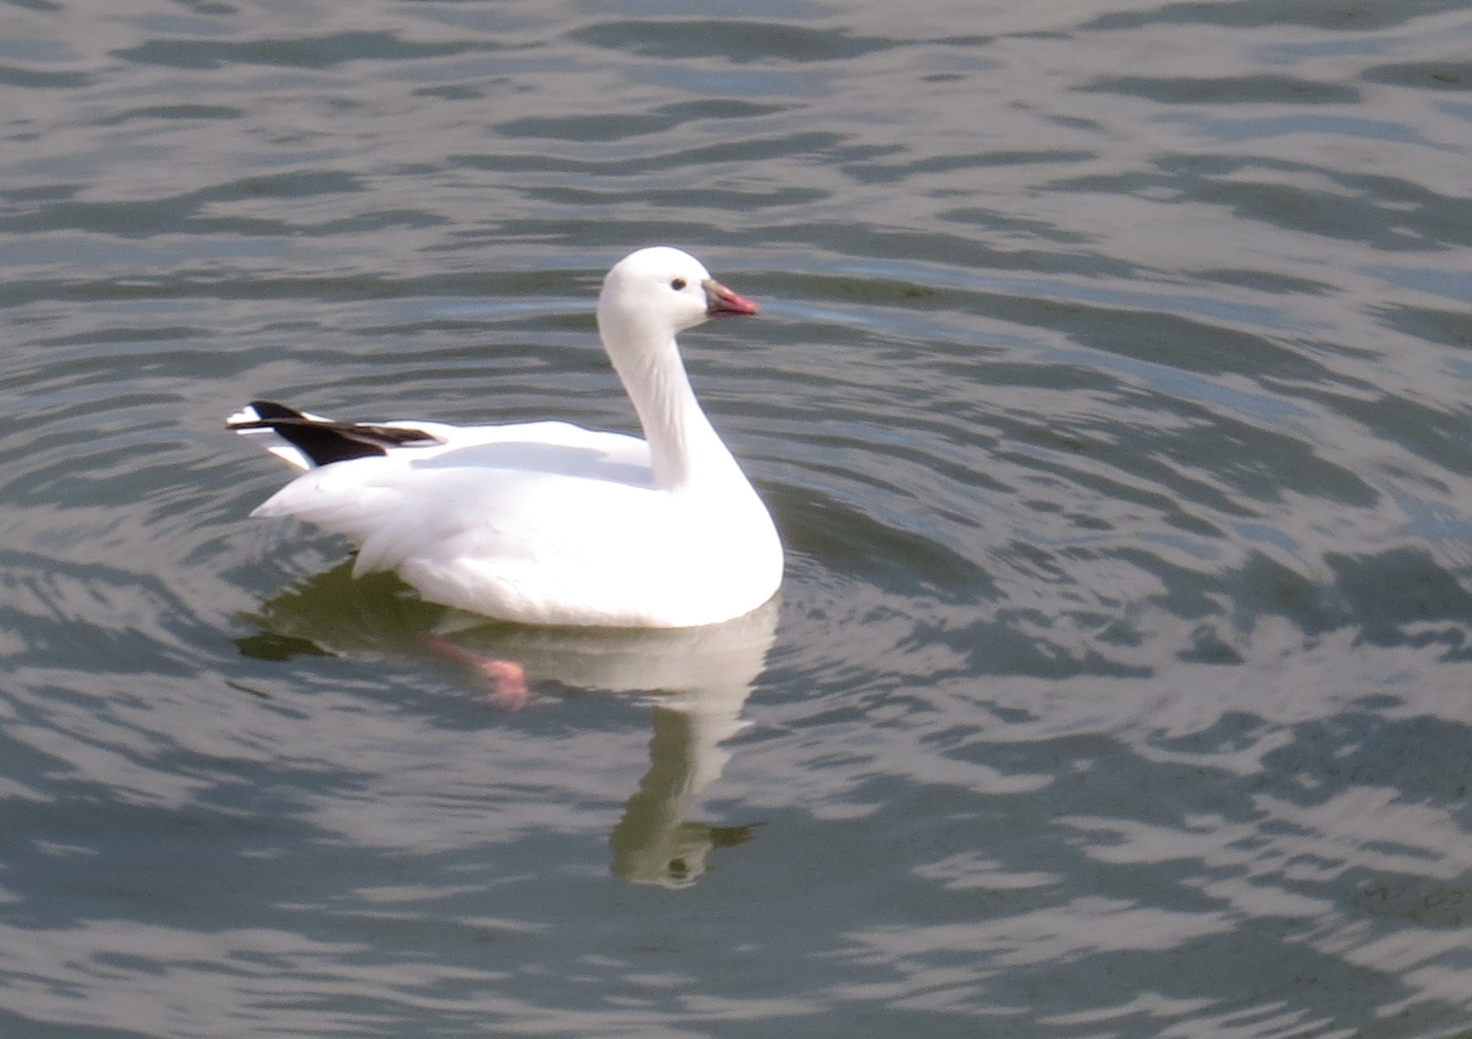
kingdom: Animalia
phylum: Chordata
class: Aves
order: Anseriformes
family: Anatidae
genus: Anser
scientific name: Anser rossii
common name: Ross's goose
